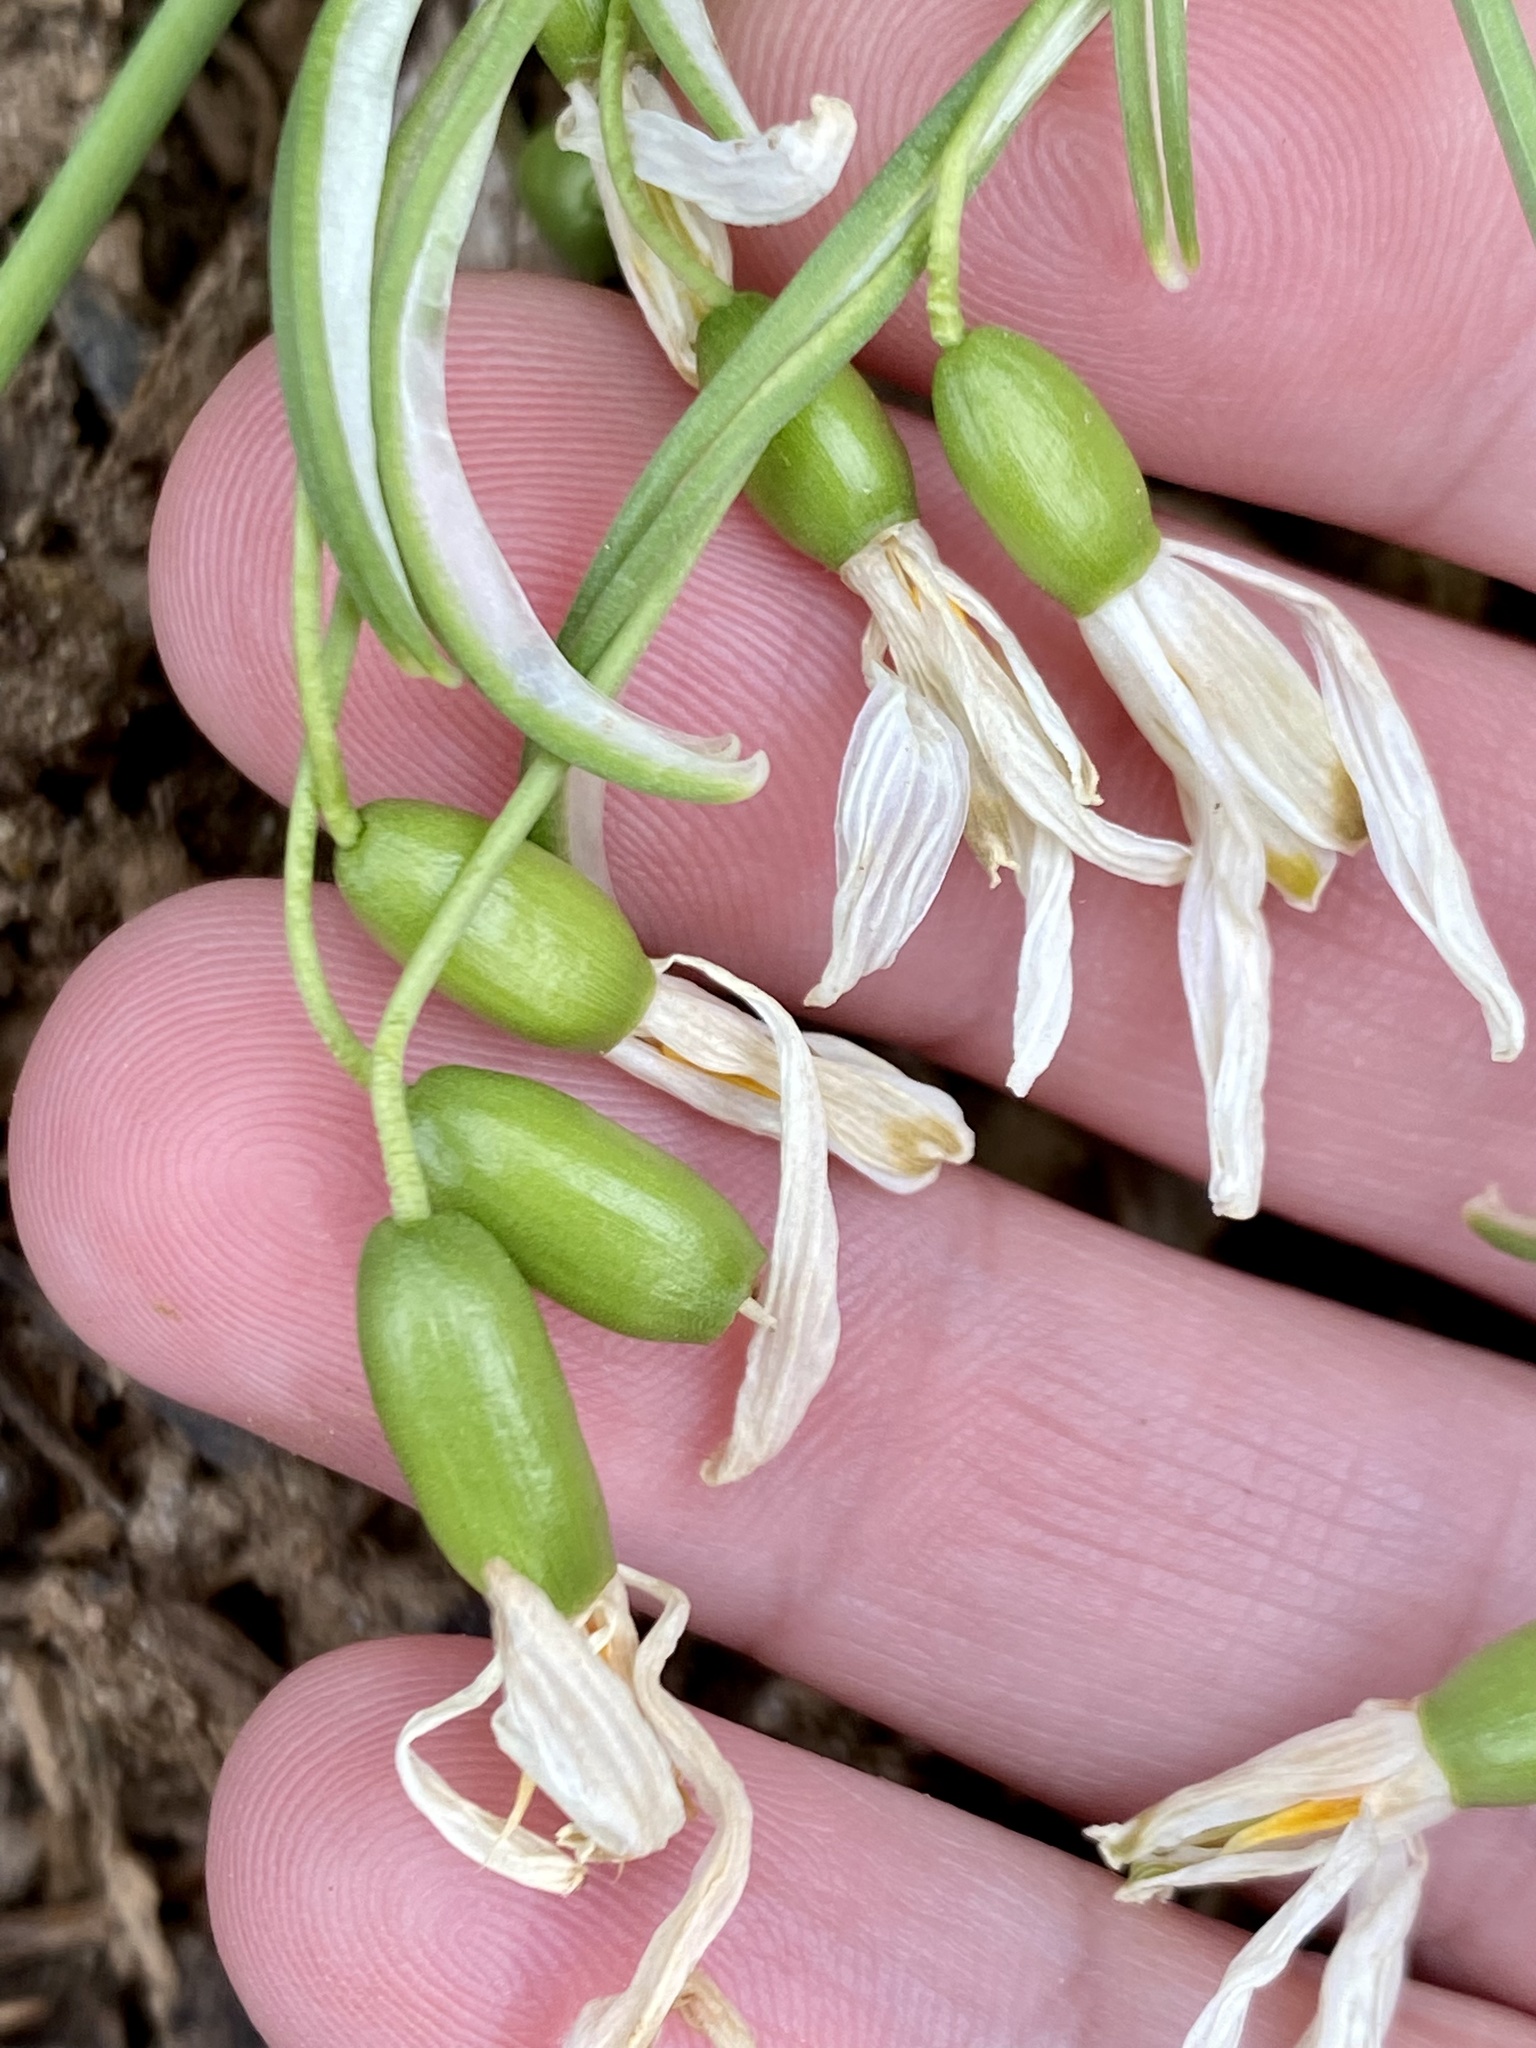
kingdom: Plantae
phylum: Tracheophyta
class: Liliopsida
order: Asparagales
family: Amaryllidaceae
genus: Galanthus
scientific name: Galanthus nivalis
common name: Snowdrop
